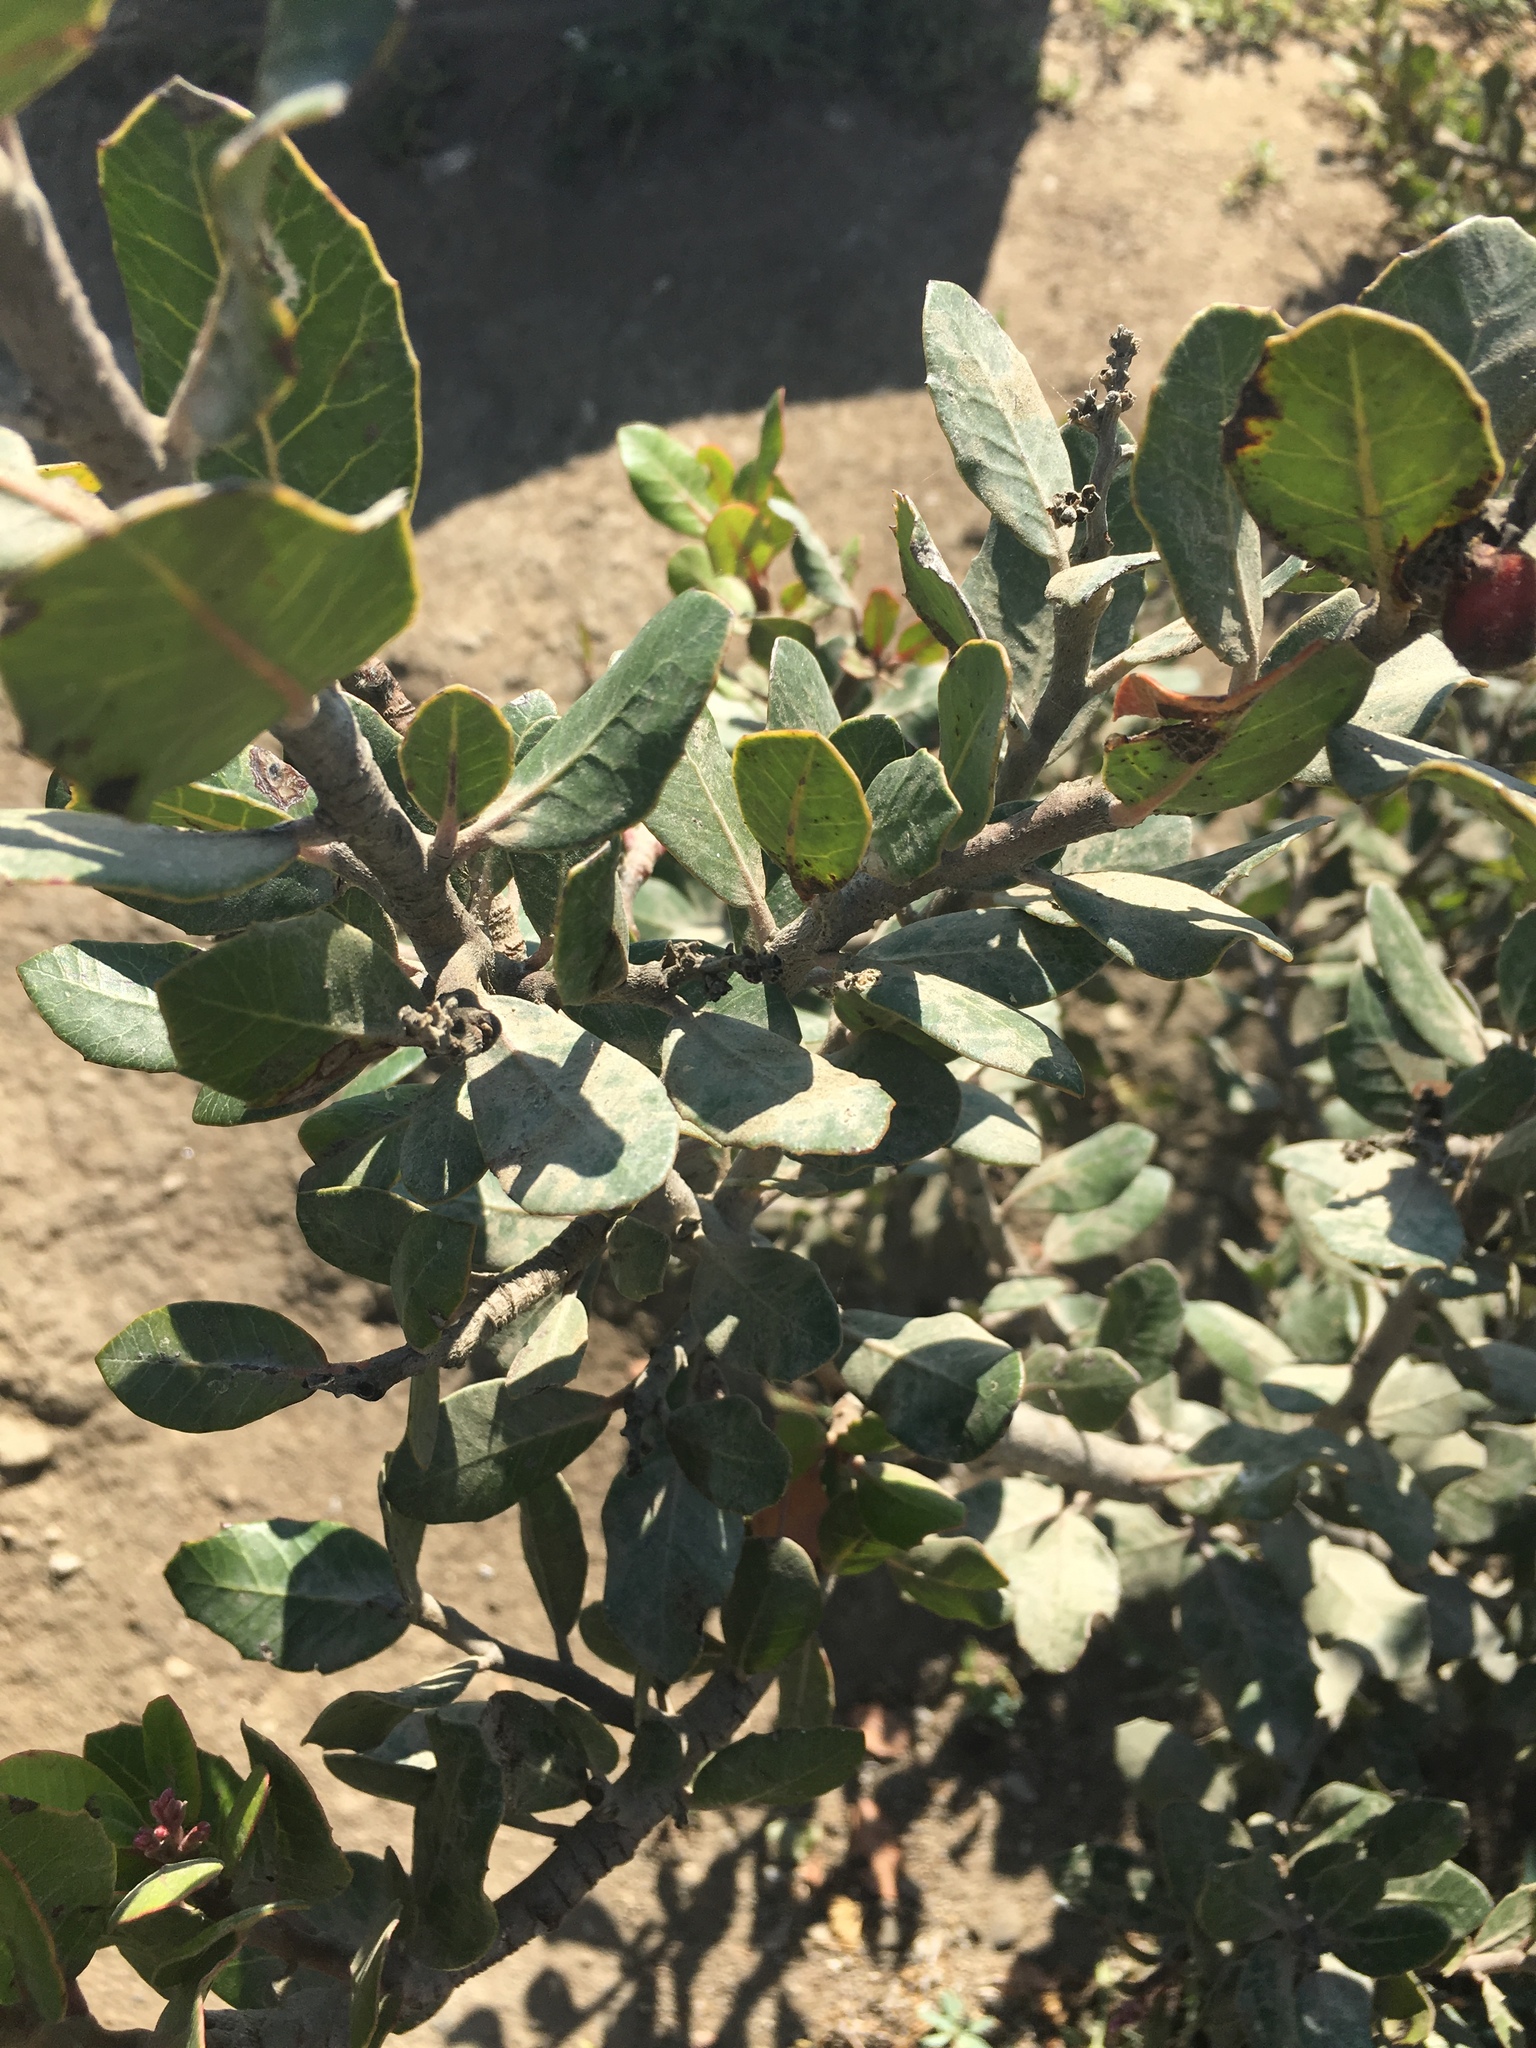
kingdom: Plantae
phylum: Tracheophyta
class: Magnoliopsida
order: Sapindales
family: Anacardiaceae
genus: Rhus
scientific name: Rhus integrifolia
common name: Lemonade sumac
